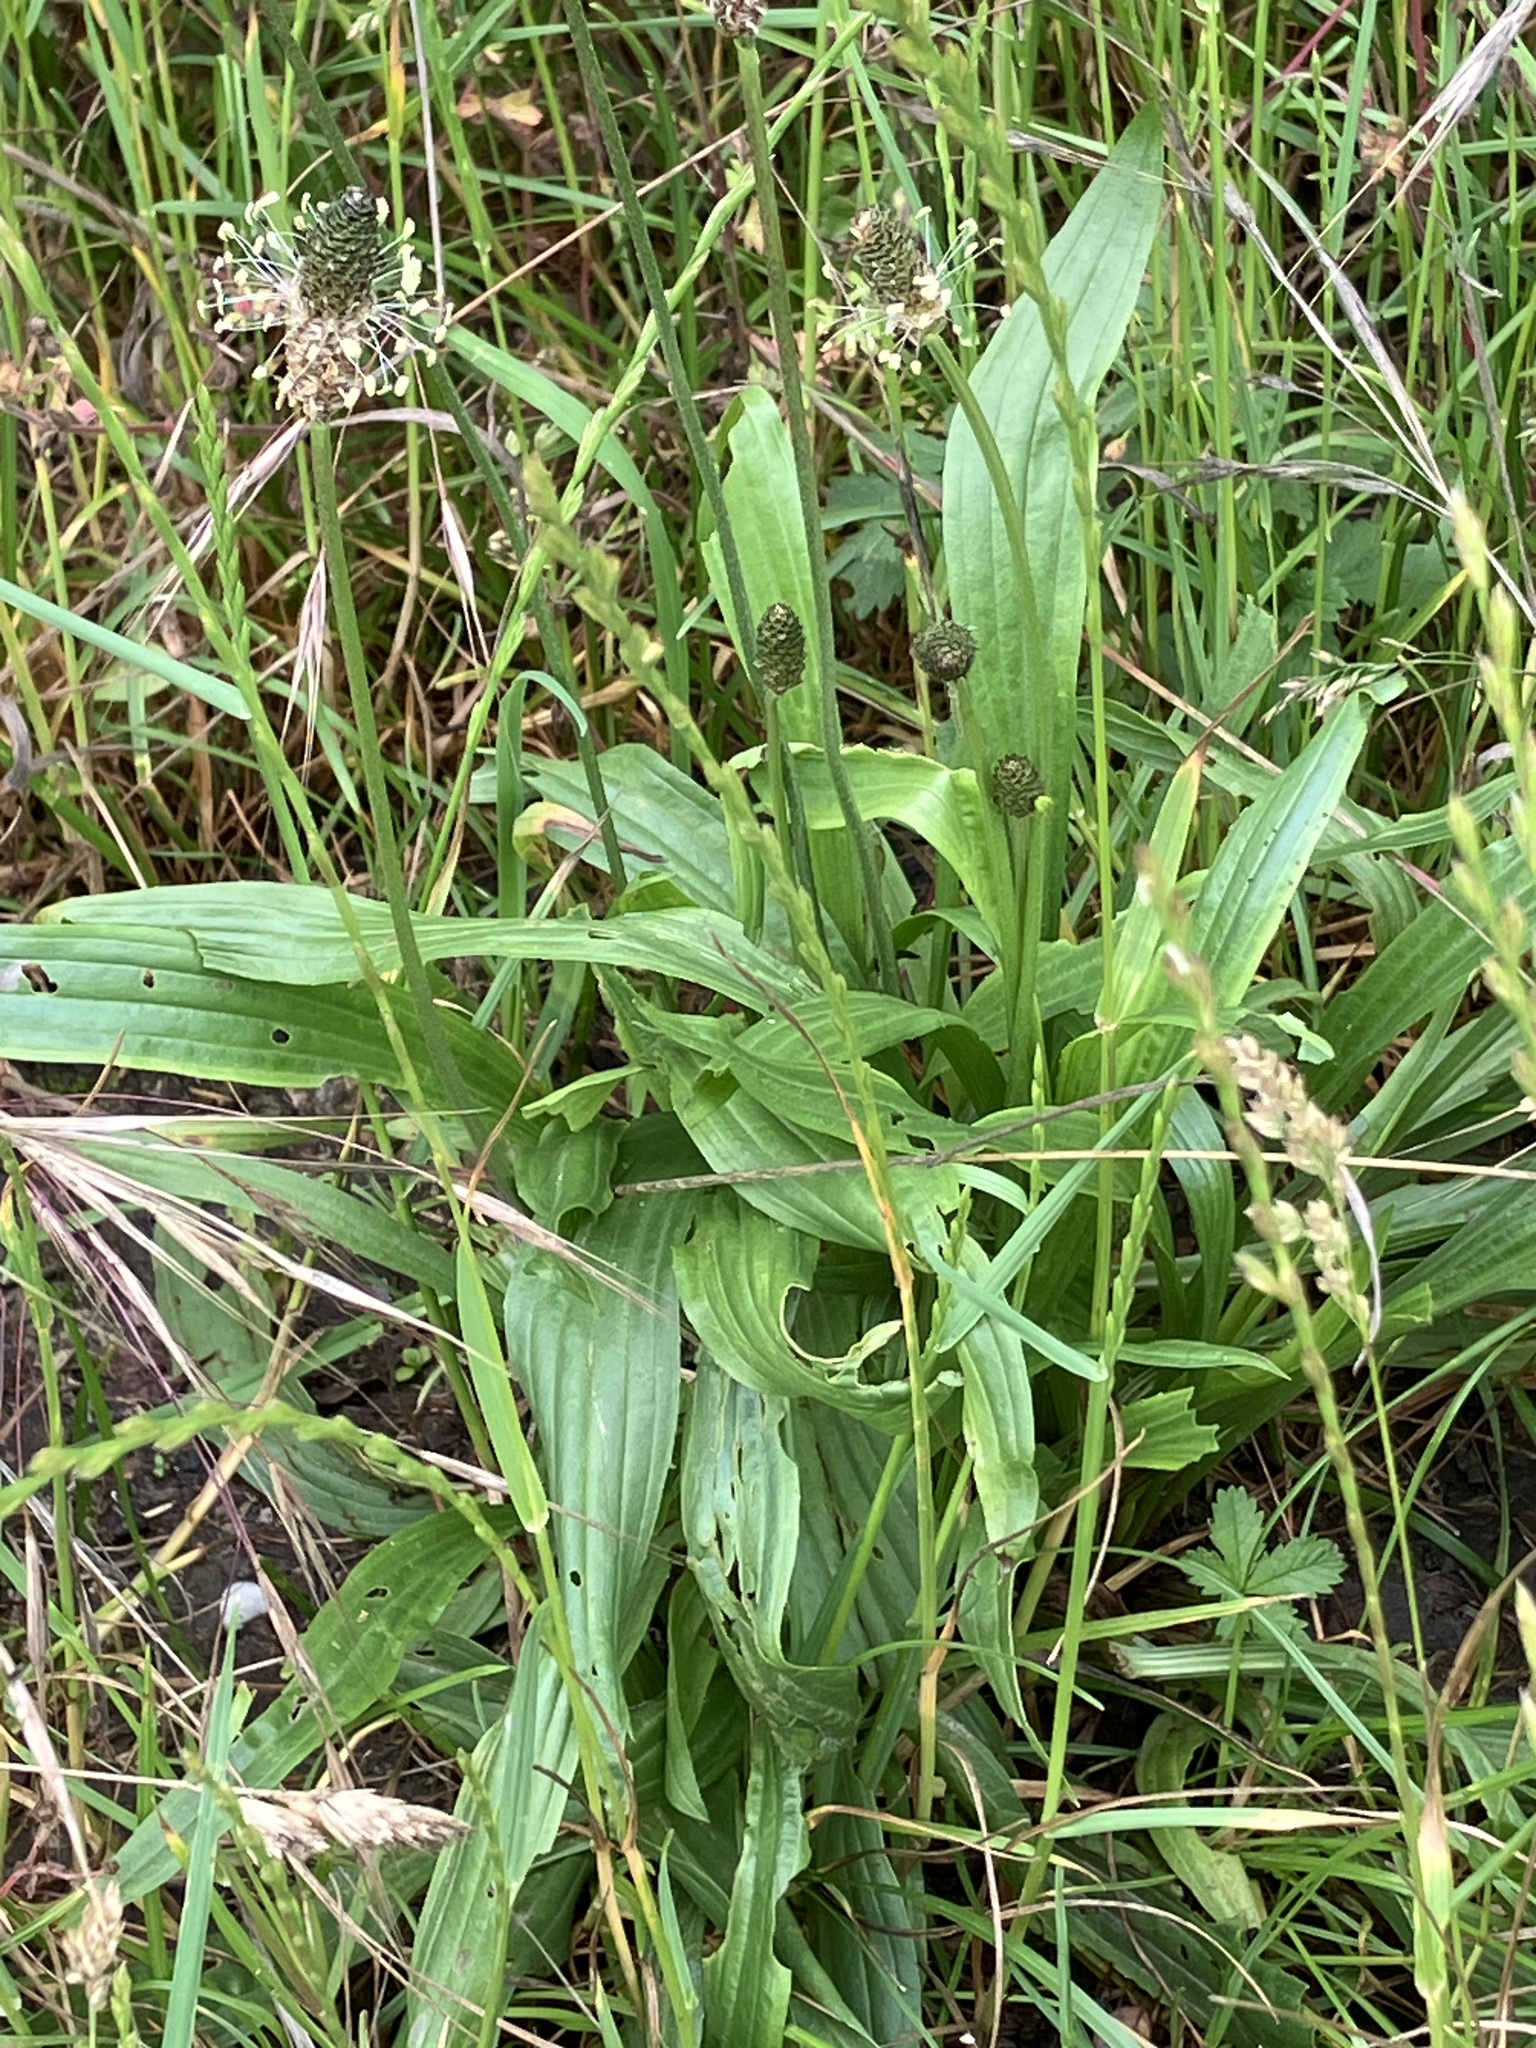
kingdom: Plantae
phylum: Tracheophyta
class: Magnoliopsida
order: Lamiales
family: Plantaginaceae
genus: Plantago
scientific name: Plantago lanceolata
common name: Ribwort plantain
